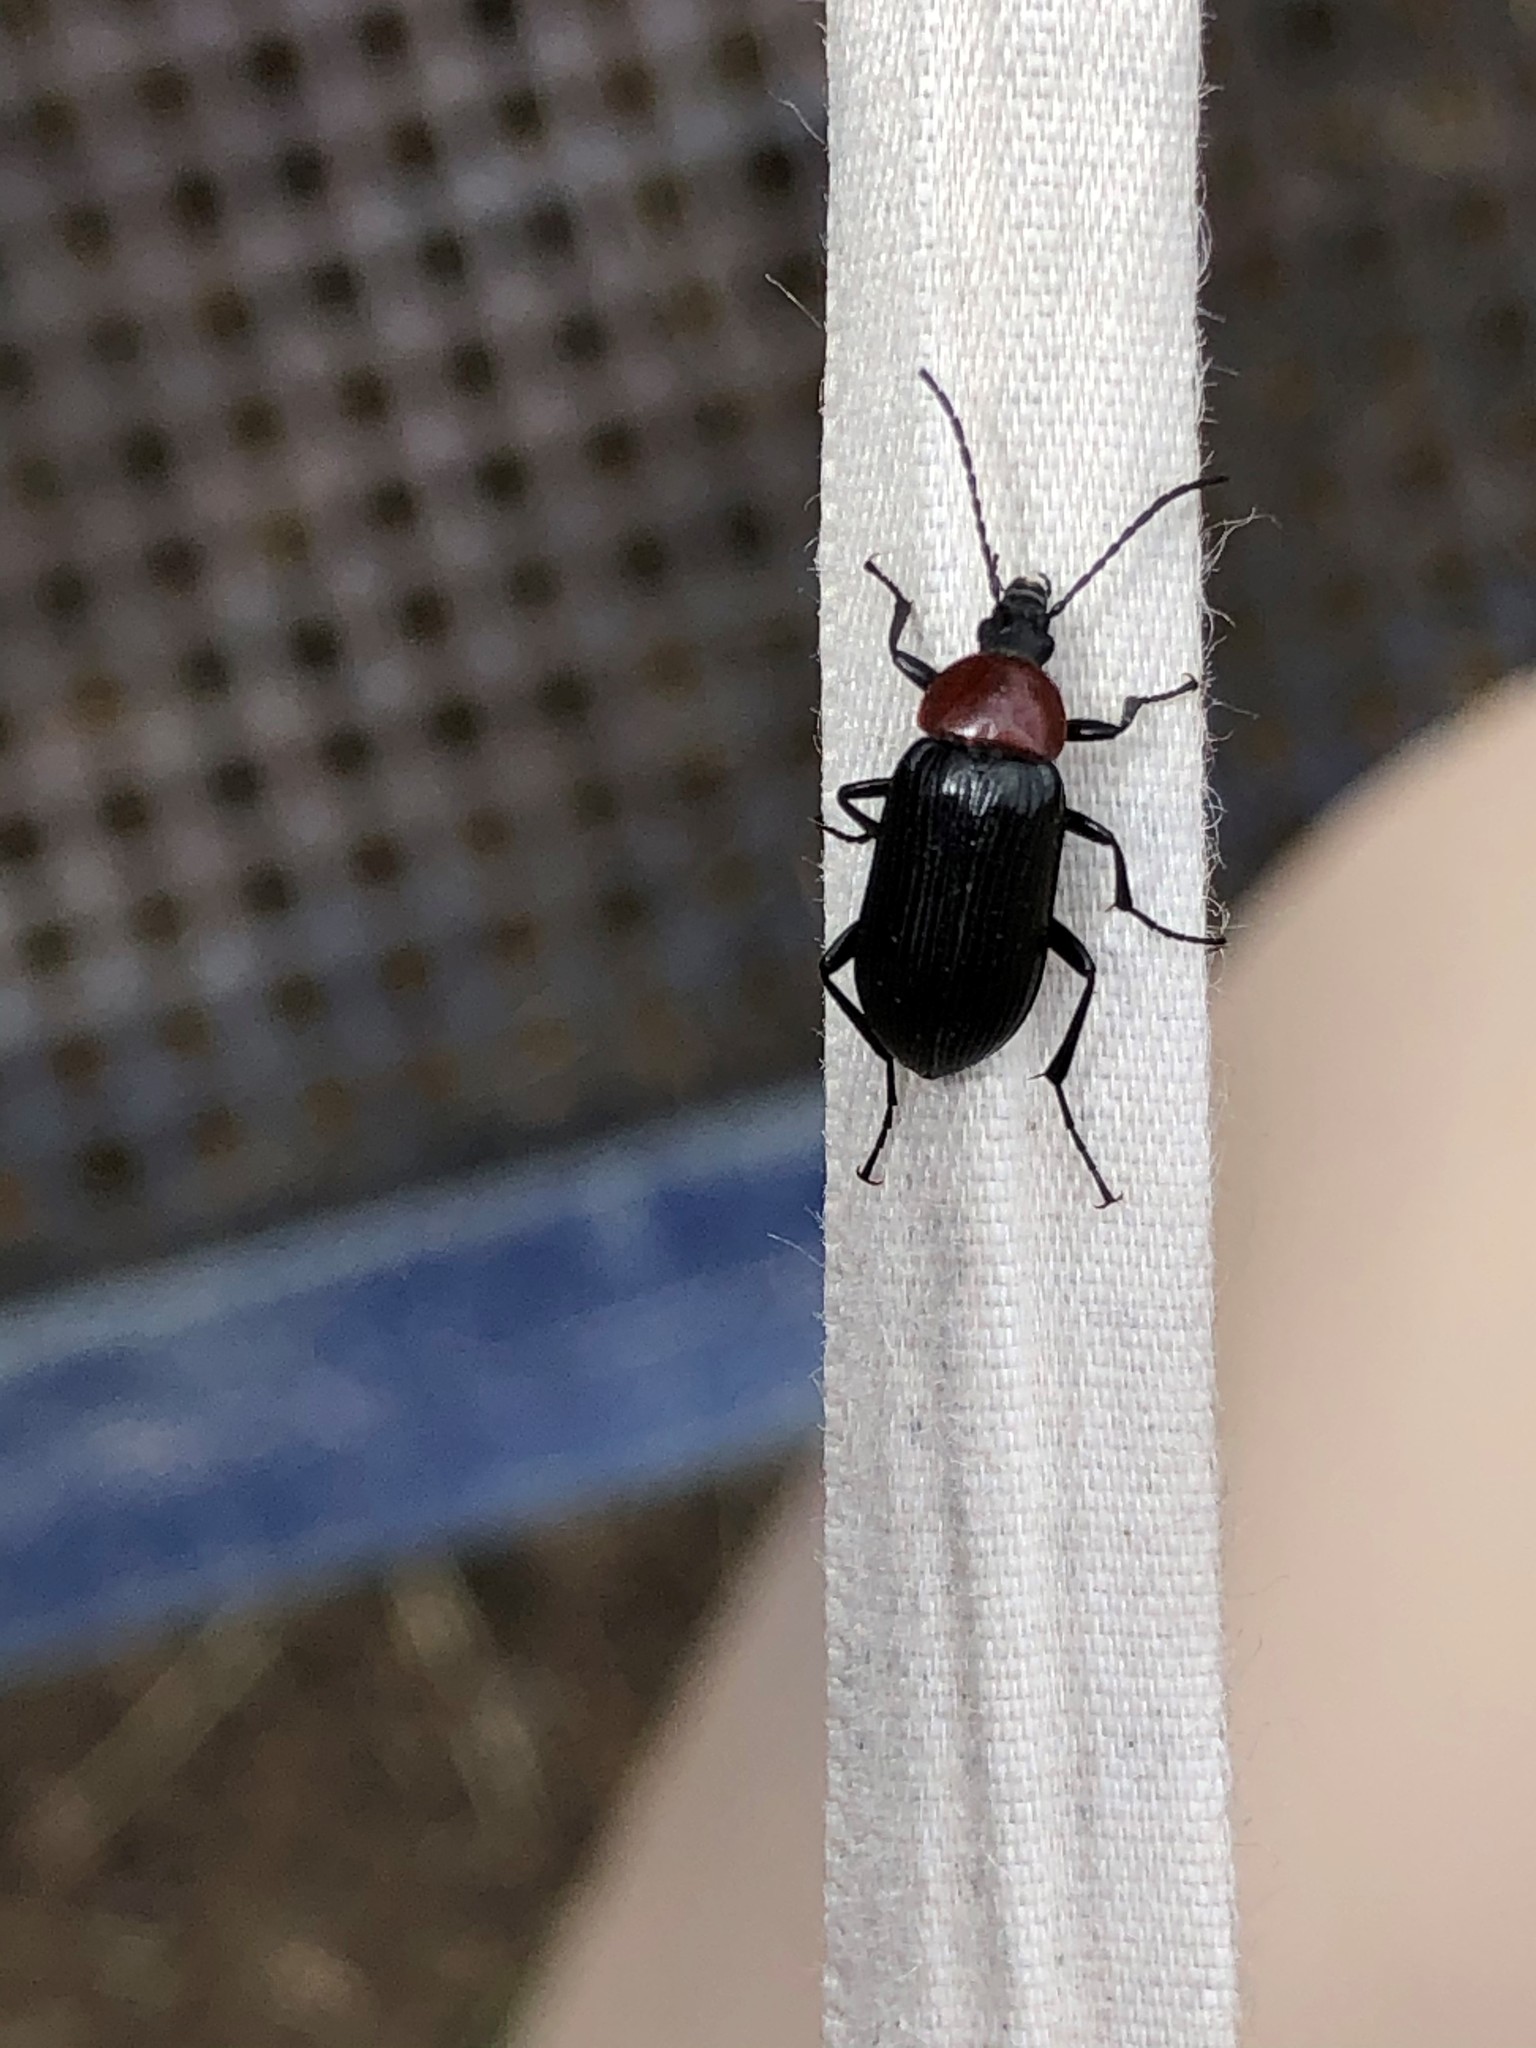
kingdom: Animalia
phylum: Arthropoda
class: Insecta
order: Coleoptera
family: Tenebrionidae
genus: Heliotaurus
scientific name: Heliotaurus ruficollis
